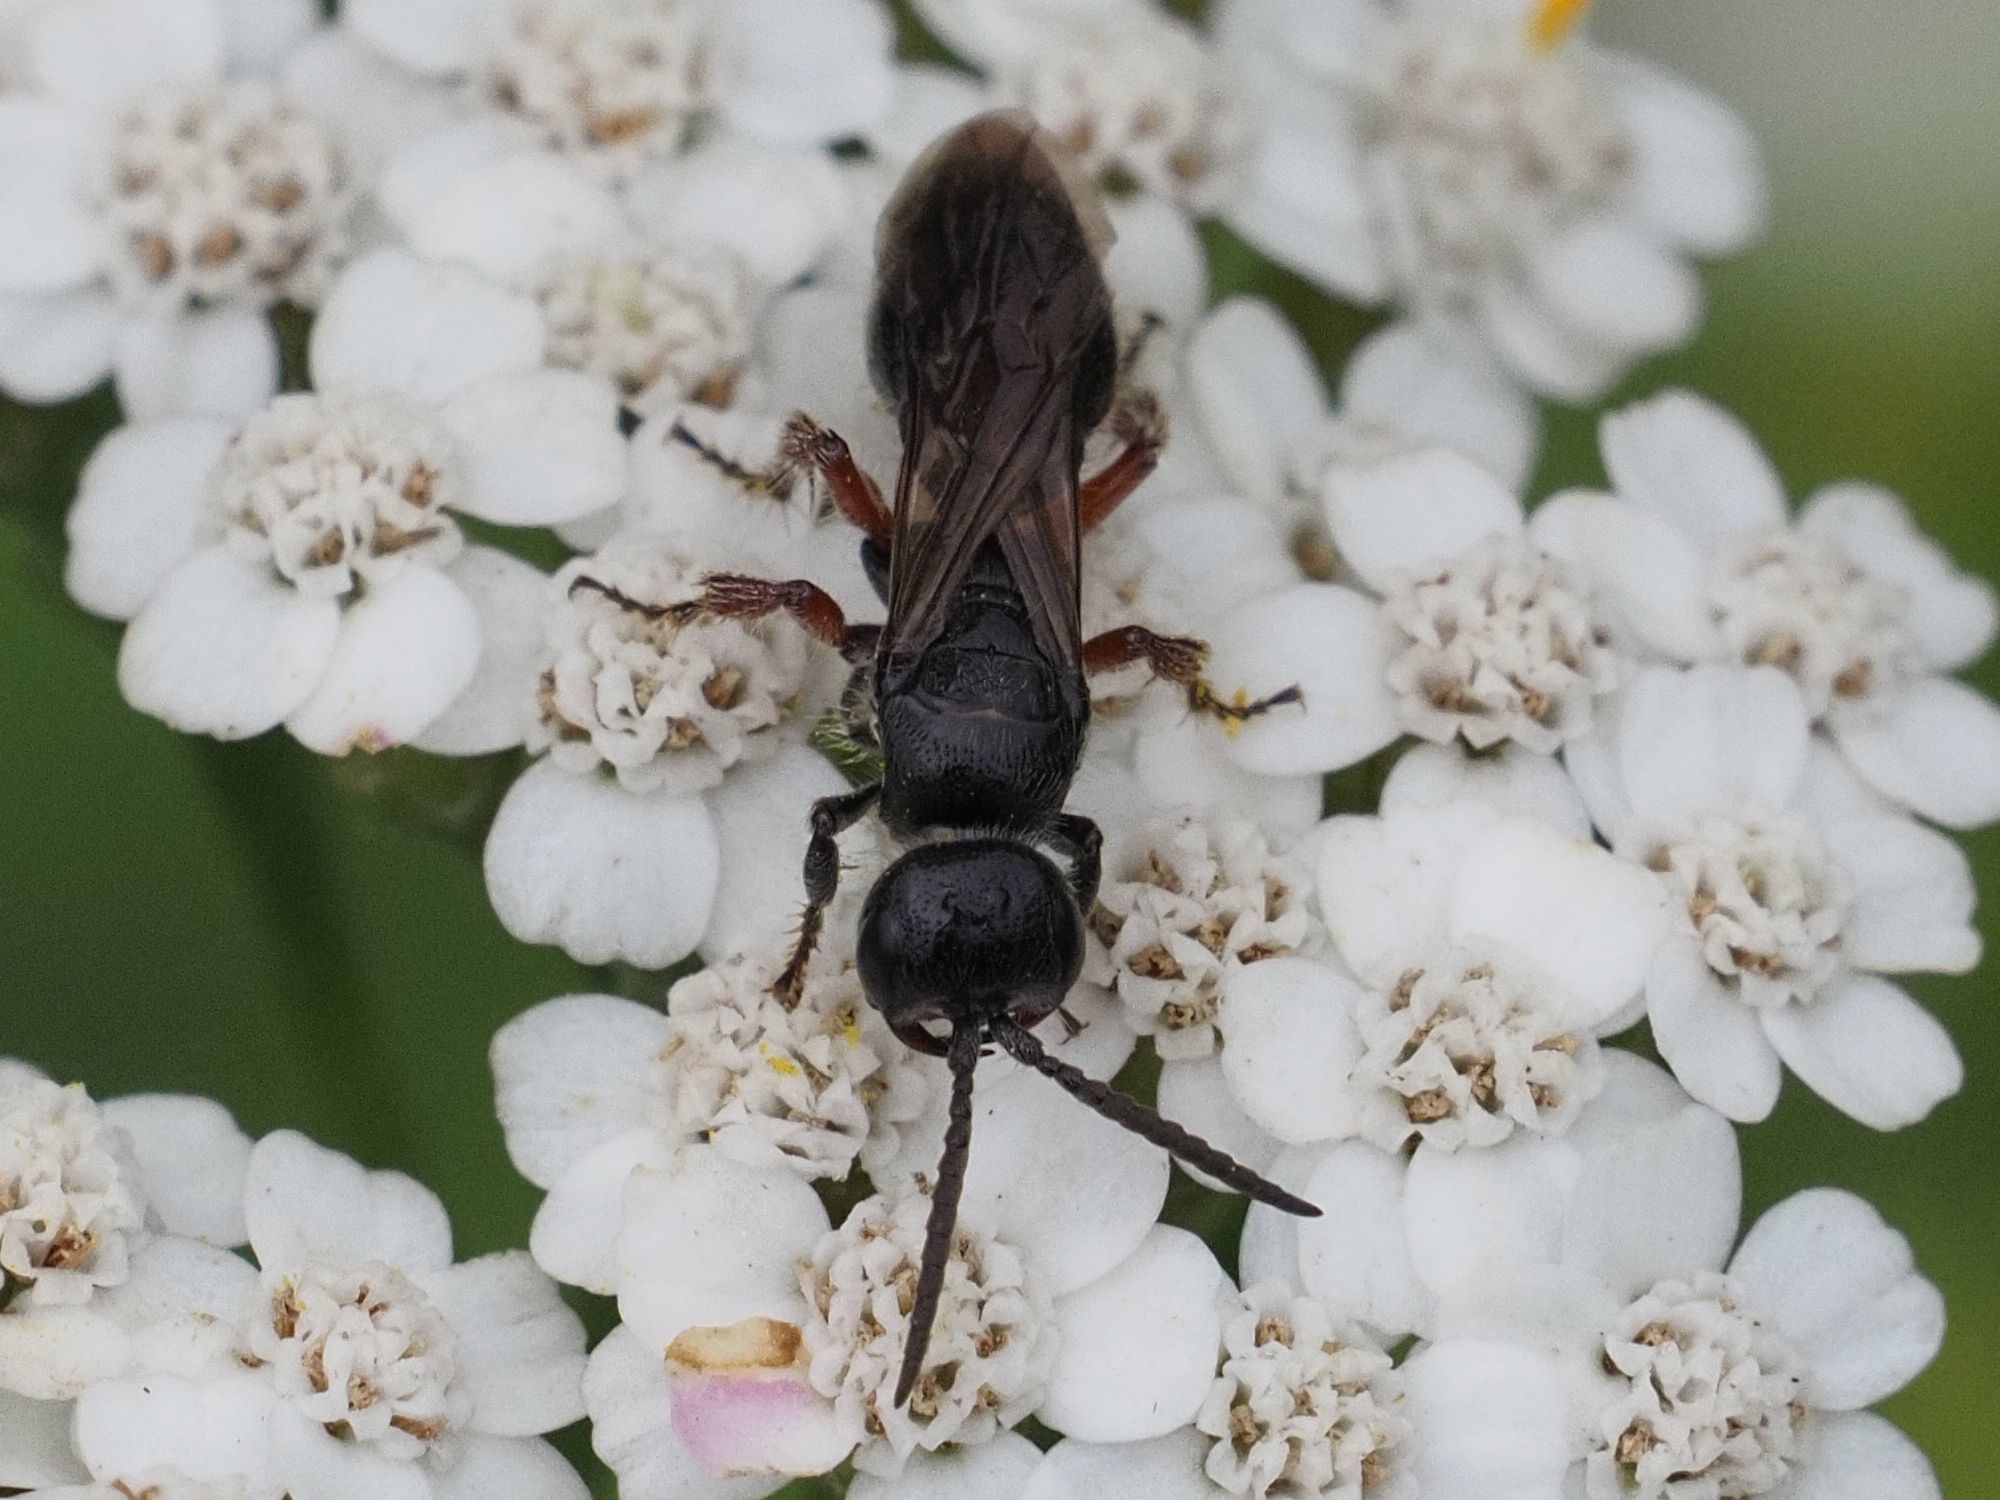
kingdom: Animalia
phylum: Arthropoda
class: Insecta
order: Hymenoptera
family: Tiphiidae
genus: Tiphia
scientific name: Tiphia femorata
